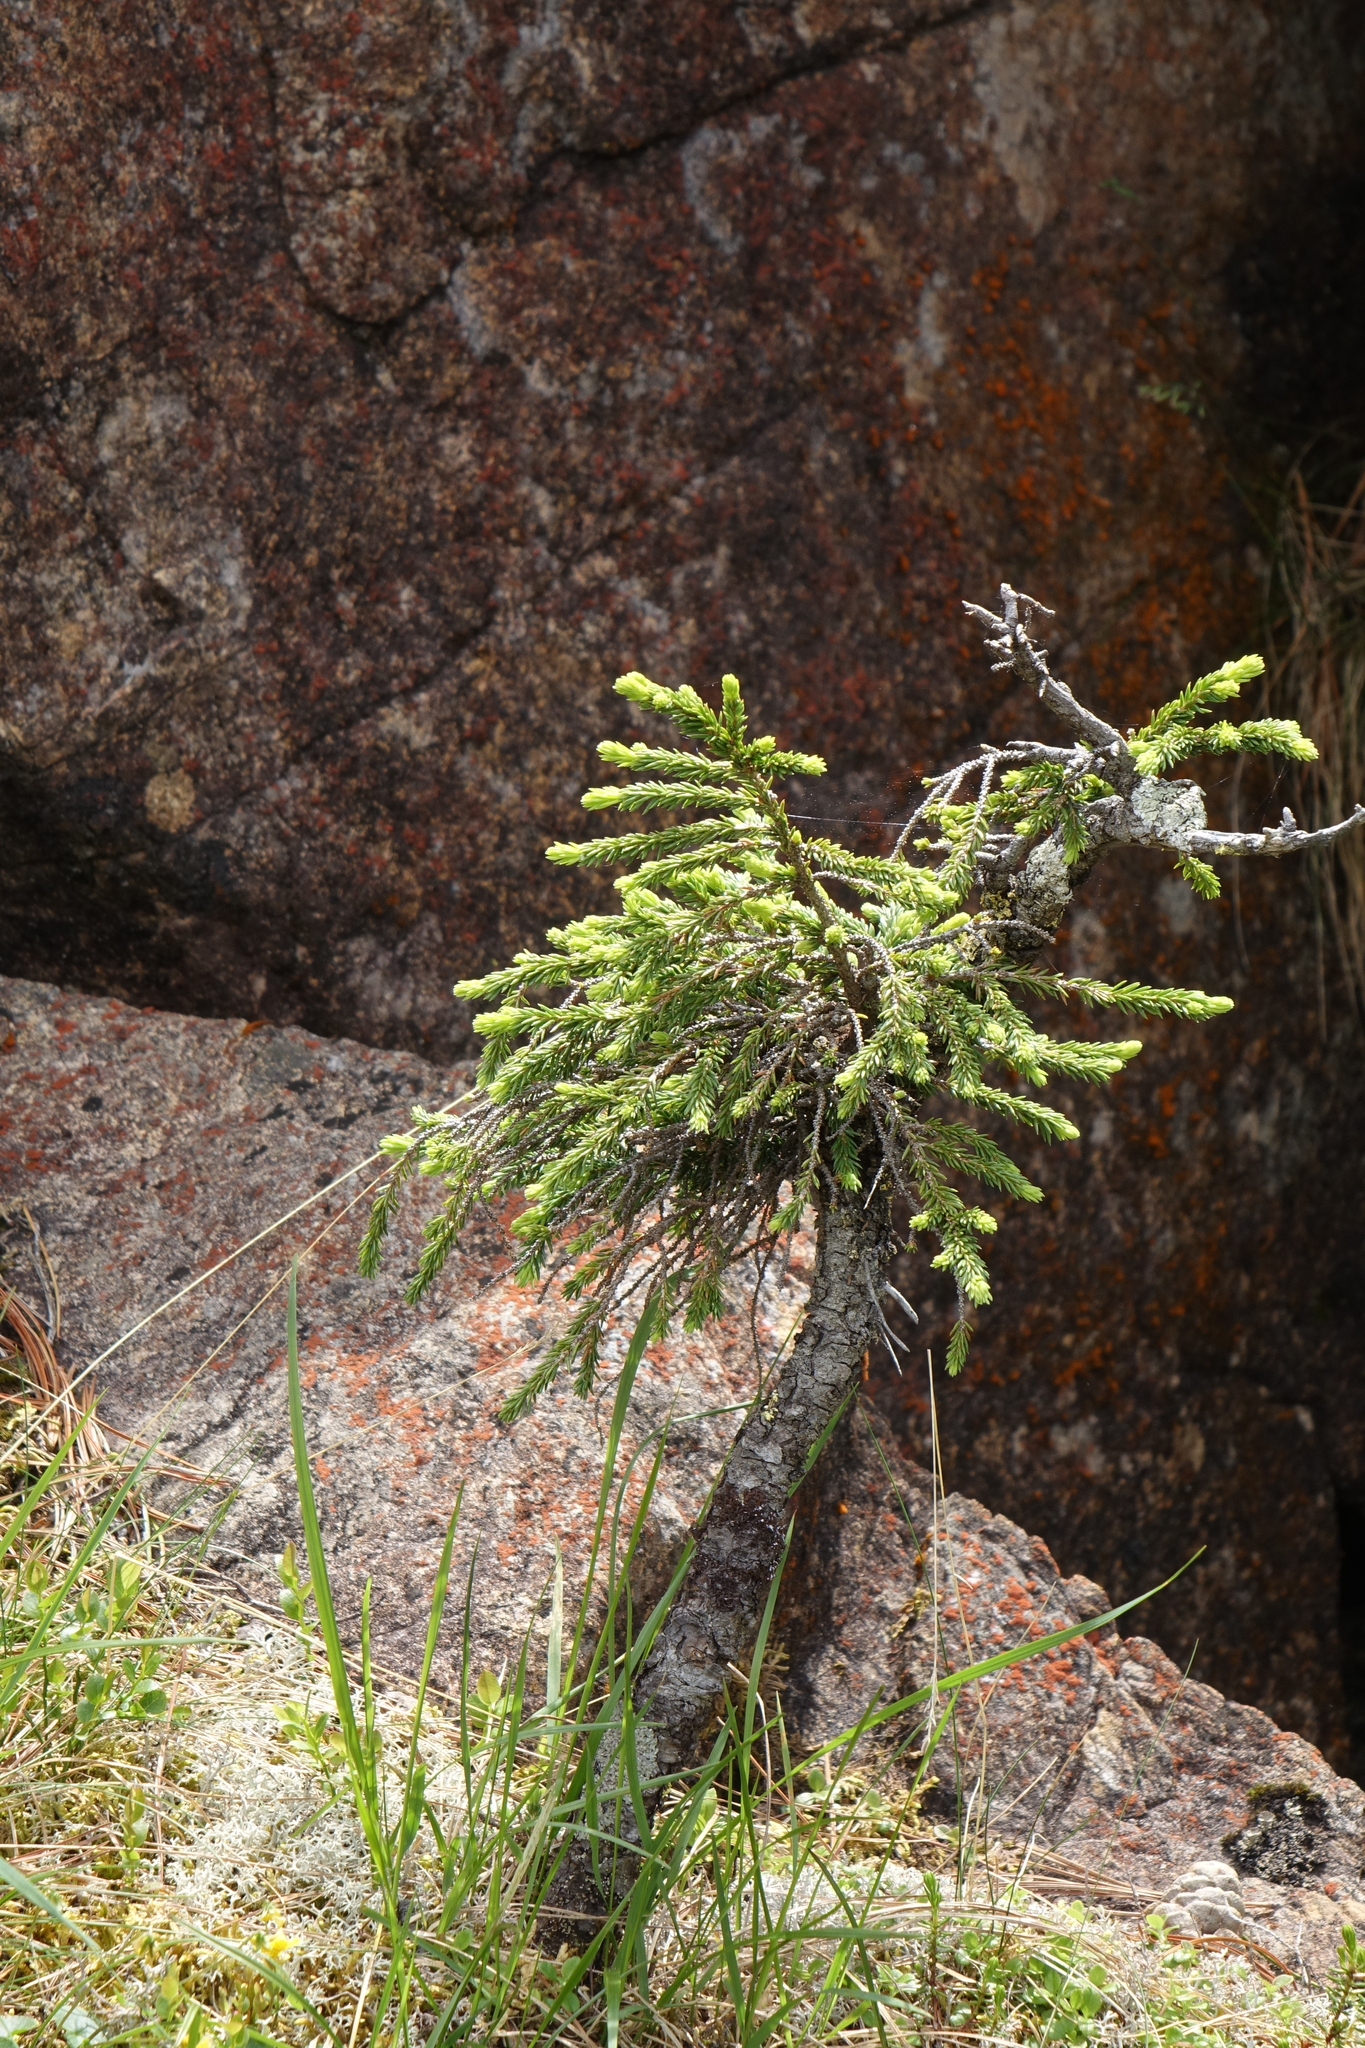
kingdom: Plantae
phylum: Tracheophyta
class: Pinopsida
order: Pinales
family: Pinaceae
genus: Picea
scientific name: Picea obovata
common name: Siberian spruce
